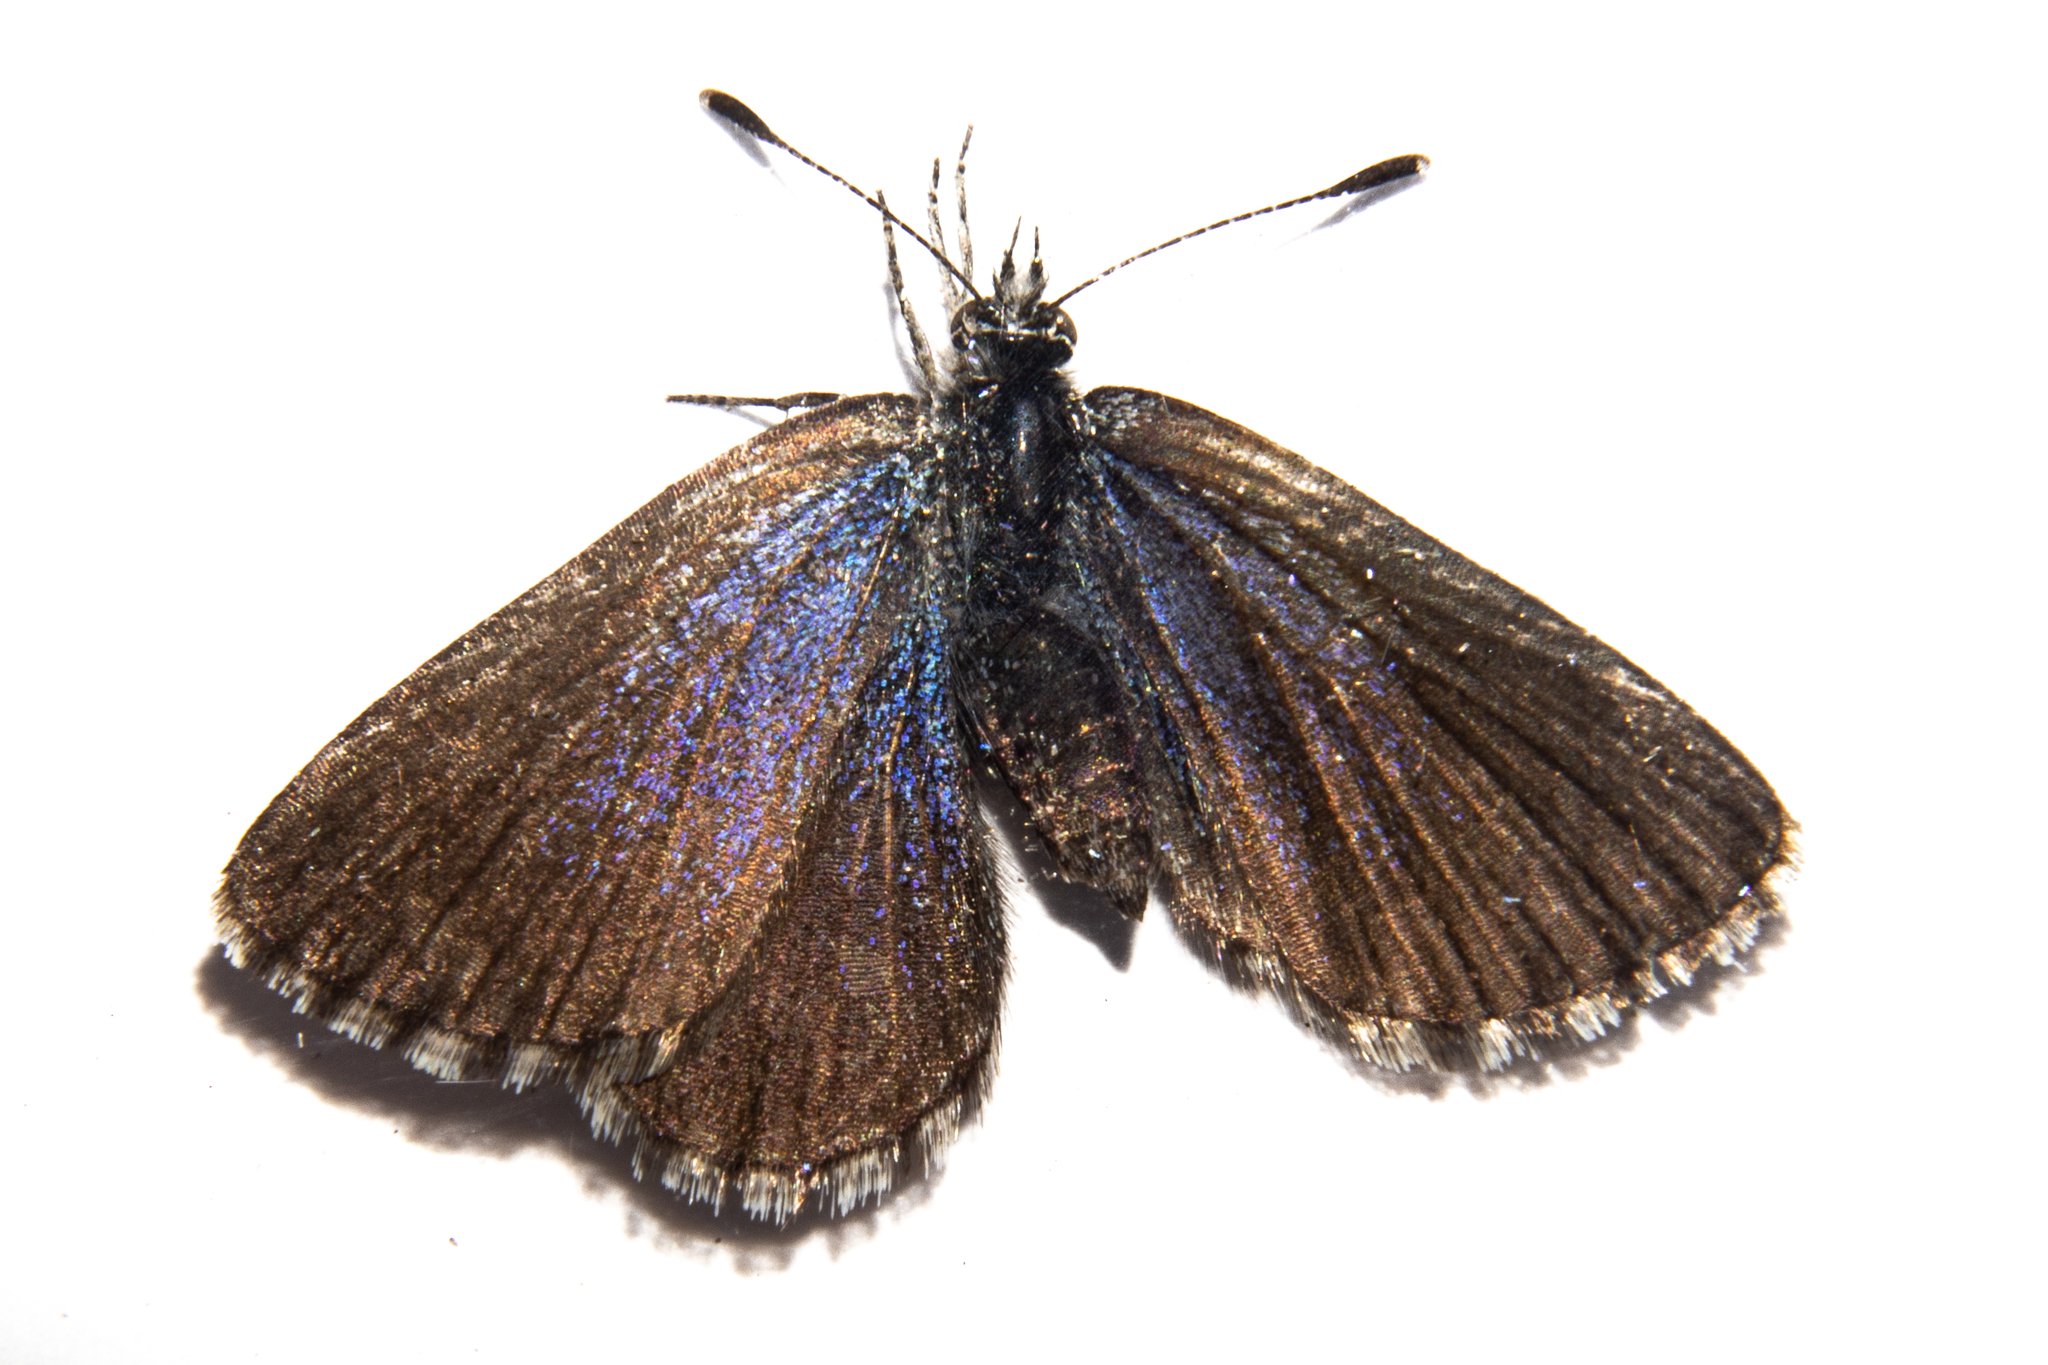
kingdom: Animalia
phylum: Arthropoda
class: Insecta
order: Lepidoptera
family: Lycaenidae
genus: Zizina
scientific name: Zizina oxleyi
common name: Southern blue
